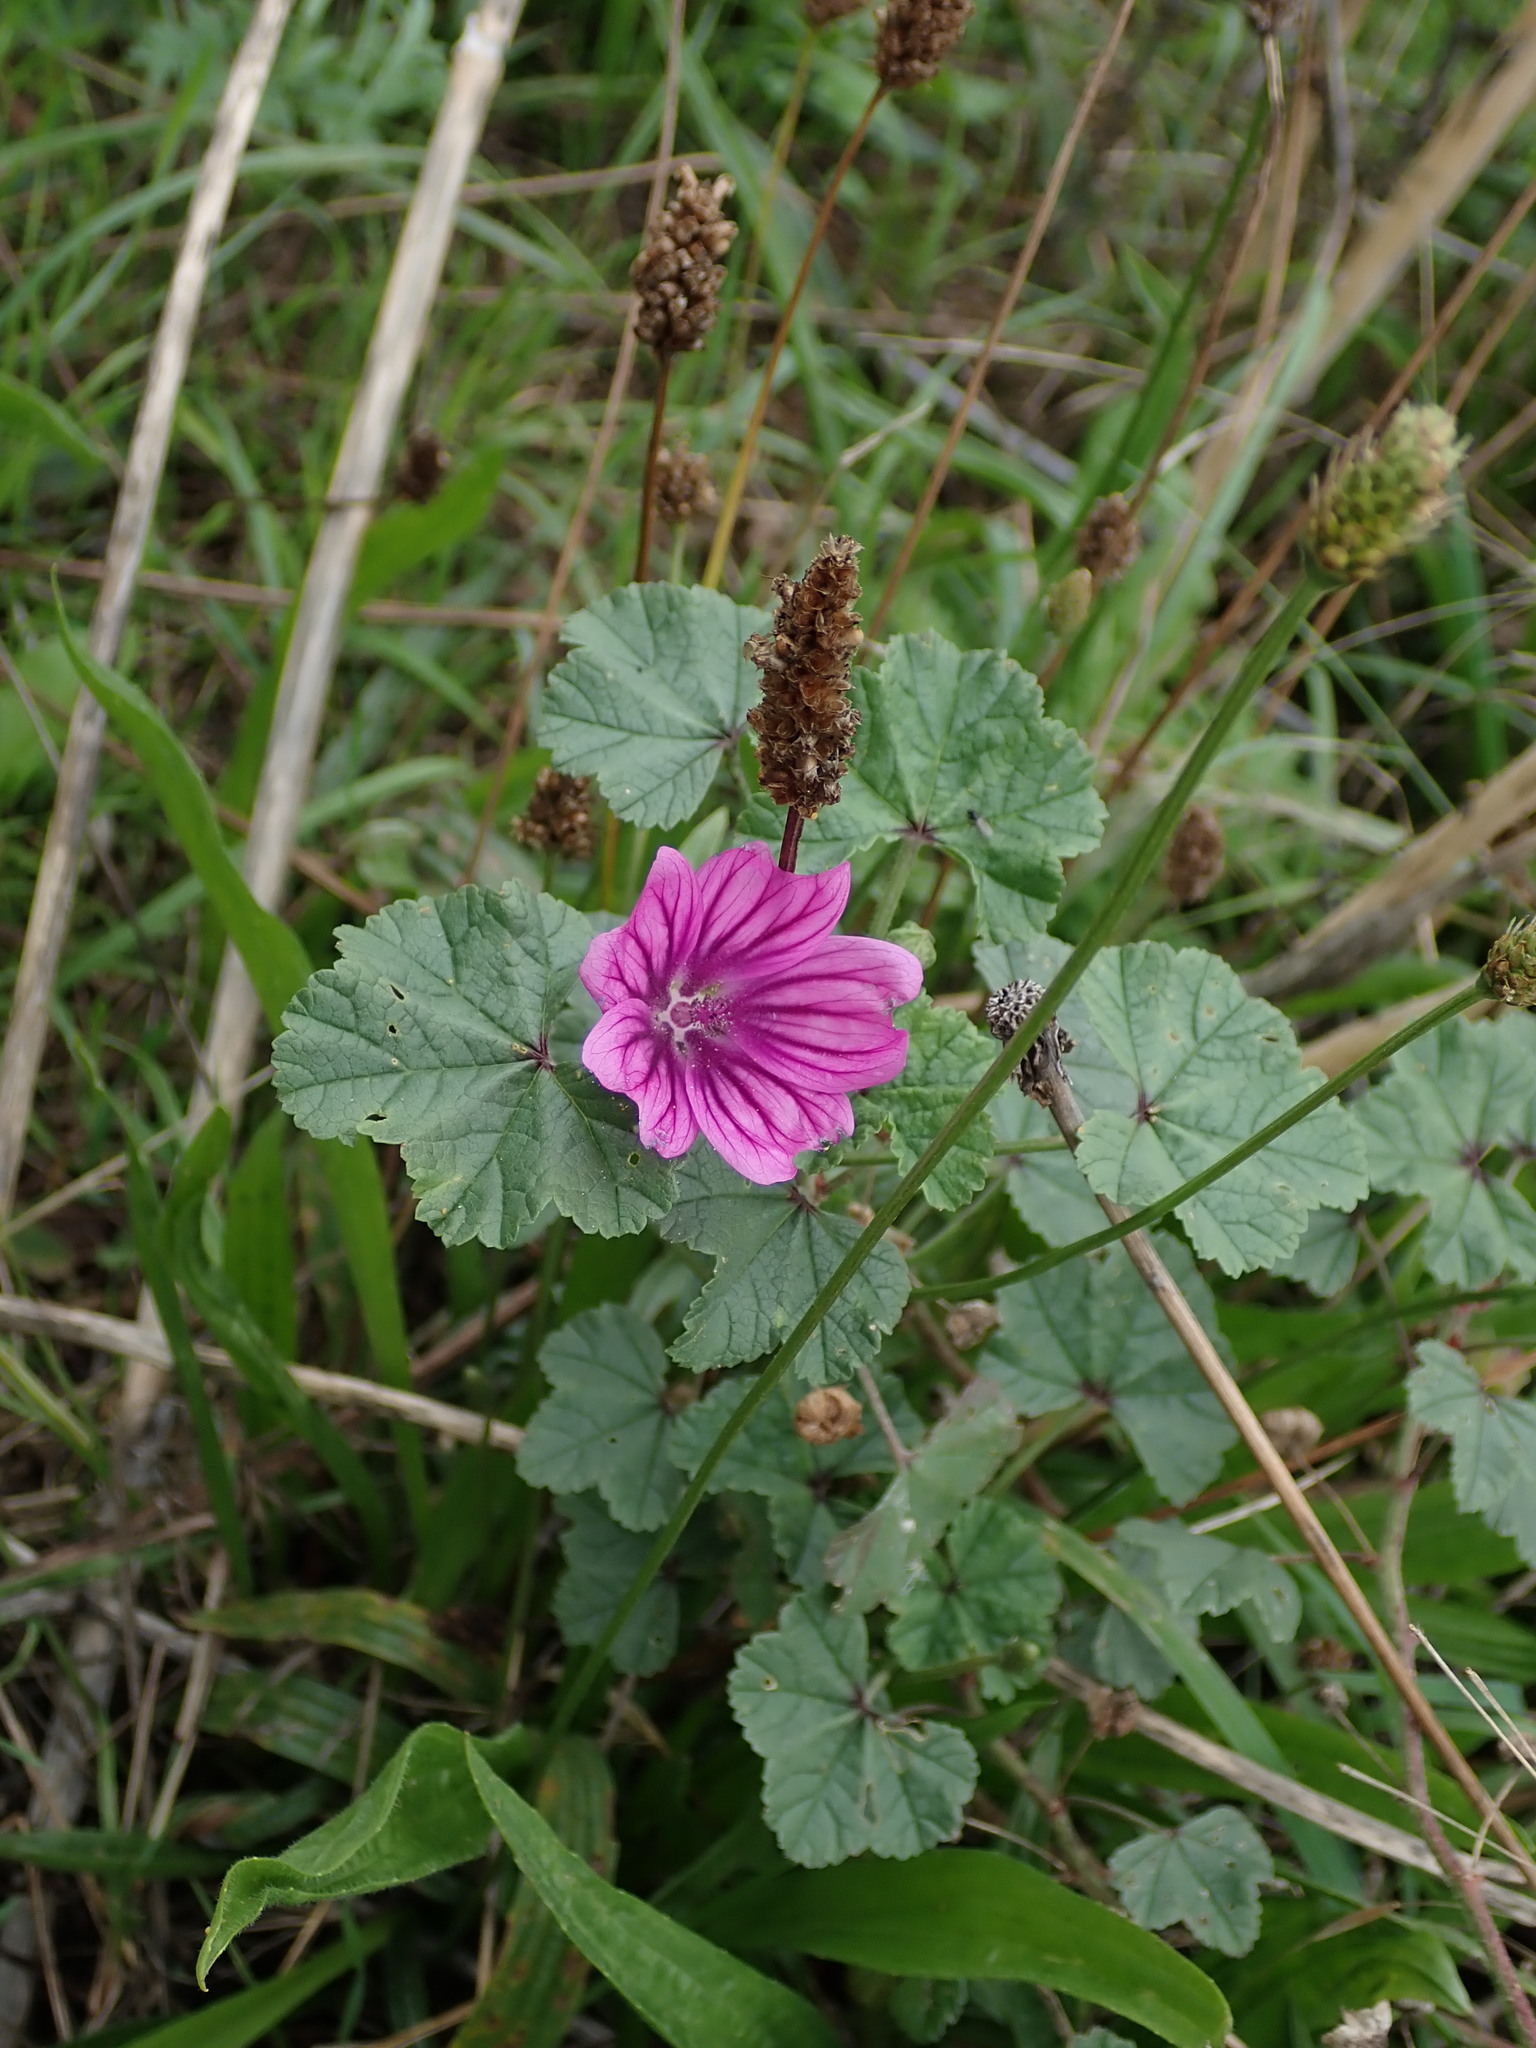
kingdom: Plantae
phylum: Tracheophyta
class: Magnoliopsida
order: Malvales
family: Malvaceae
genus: Malva
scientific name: Malva sylvestris
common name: Common mallow
